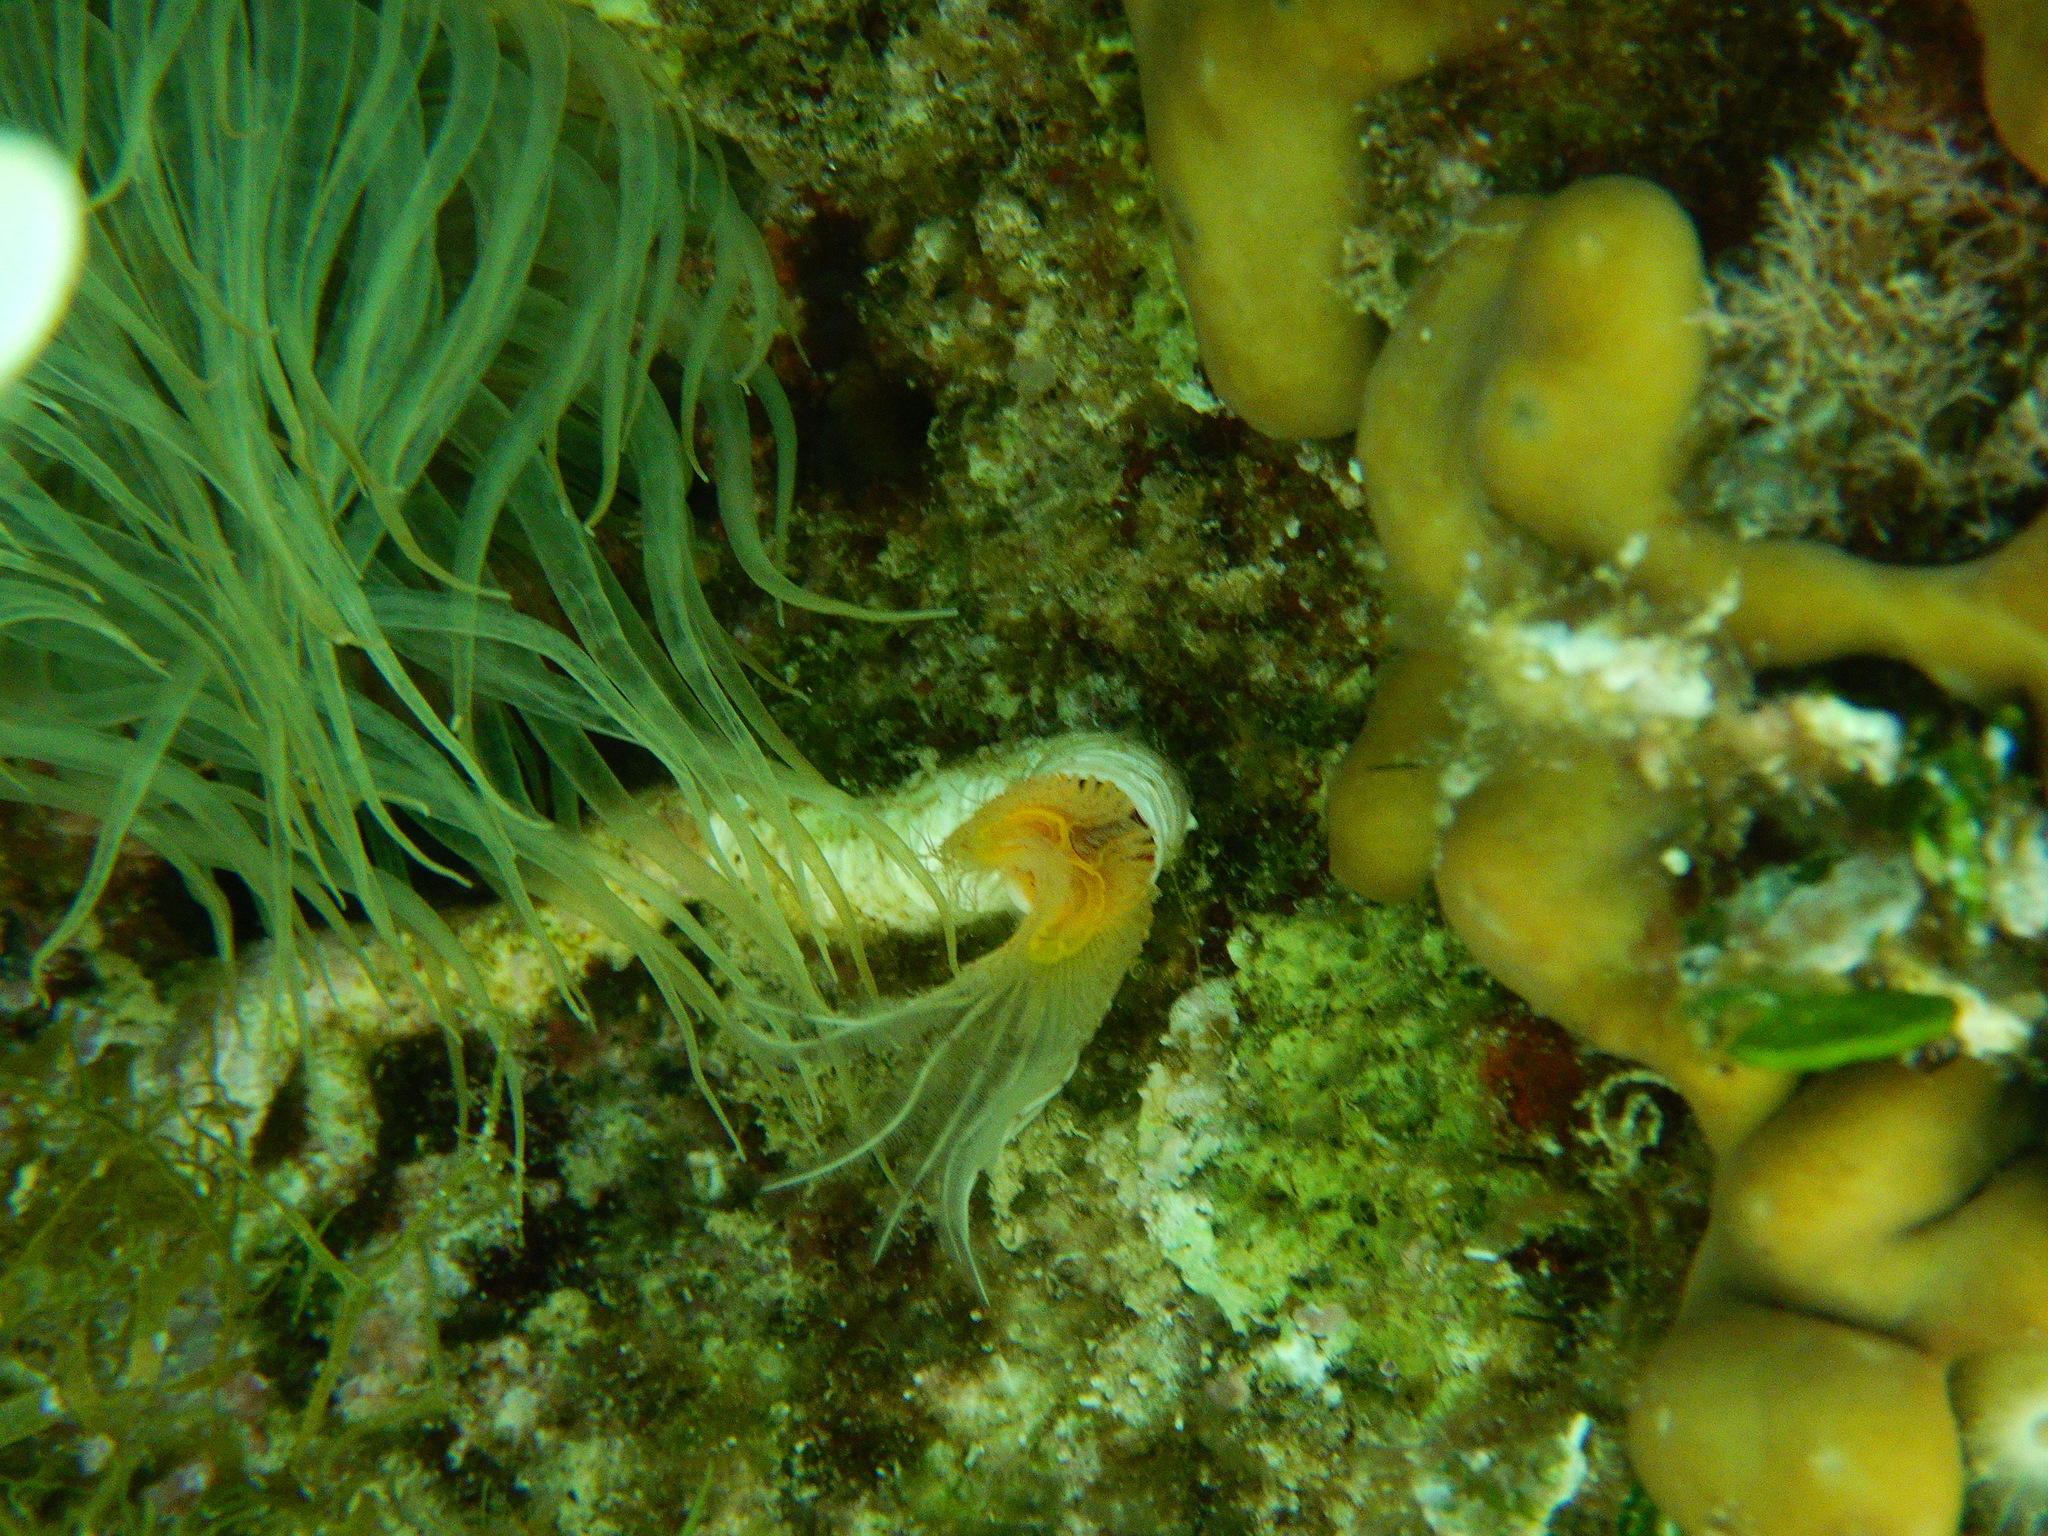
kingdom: Animalia
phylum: Annelida
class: Polychaeta
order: Sabellida
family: Serpulidae
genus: Protula
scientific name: Protula tubularia
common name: Red-spotted horseshoe
